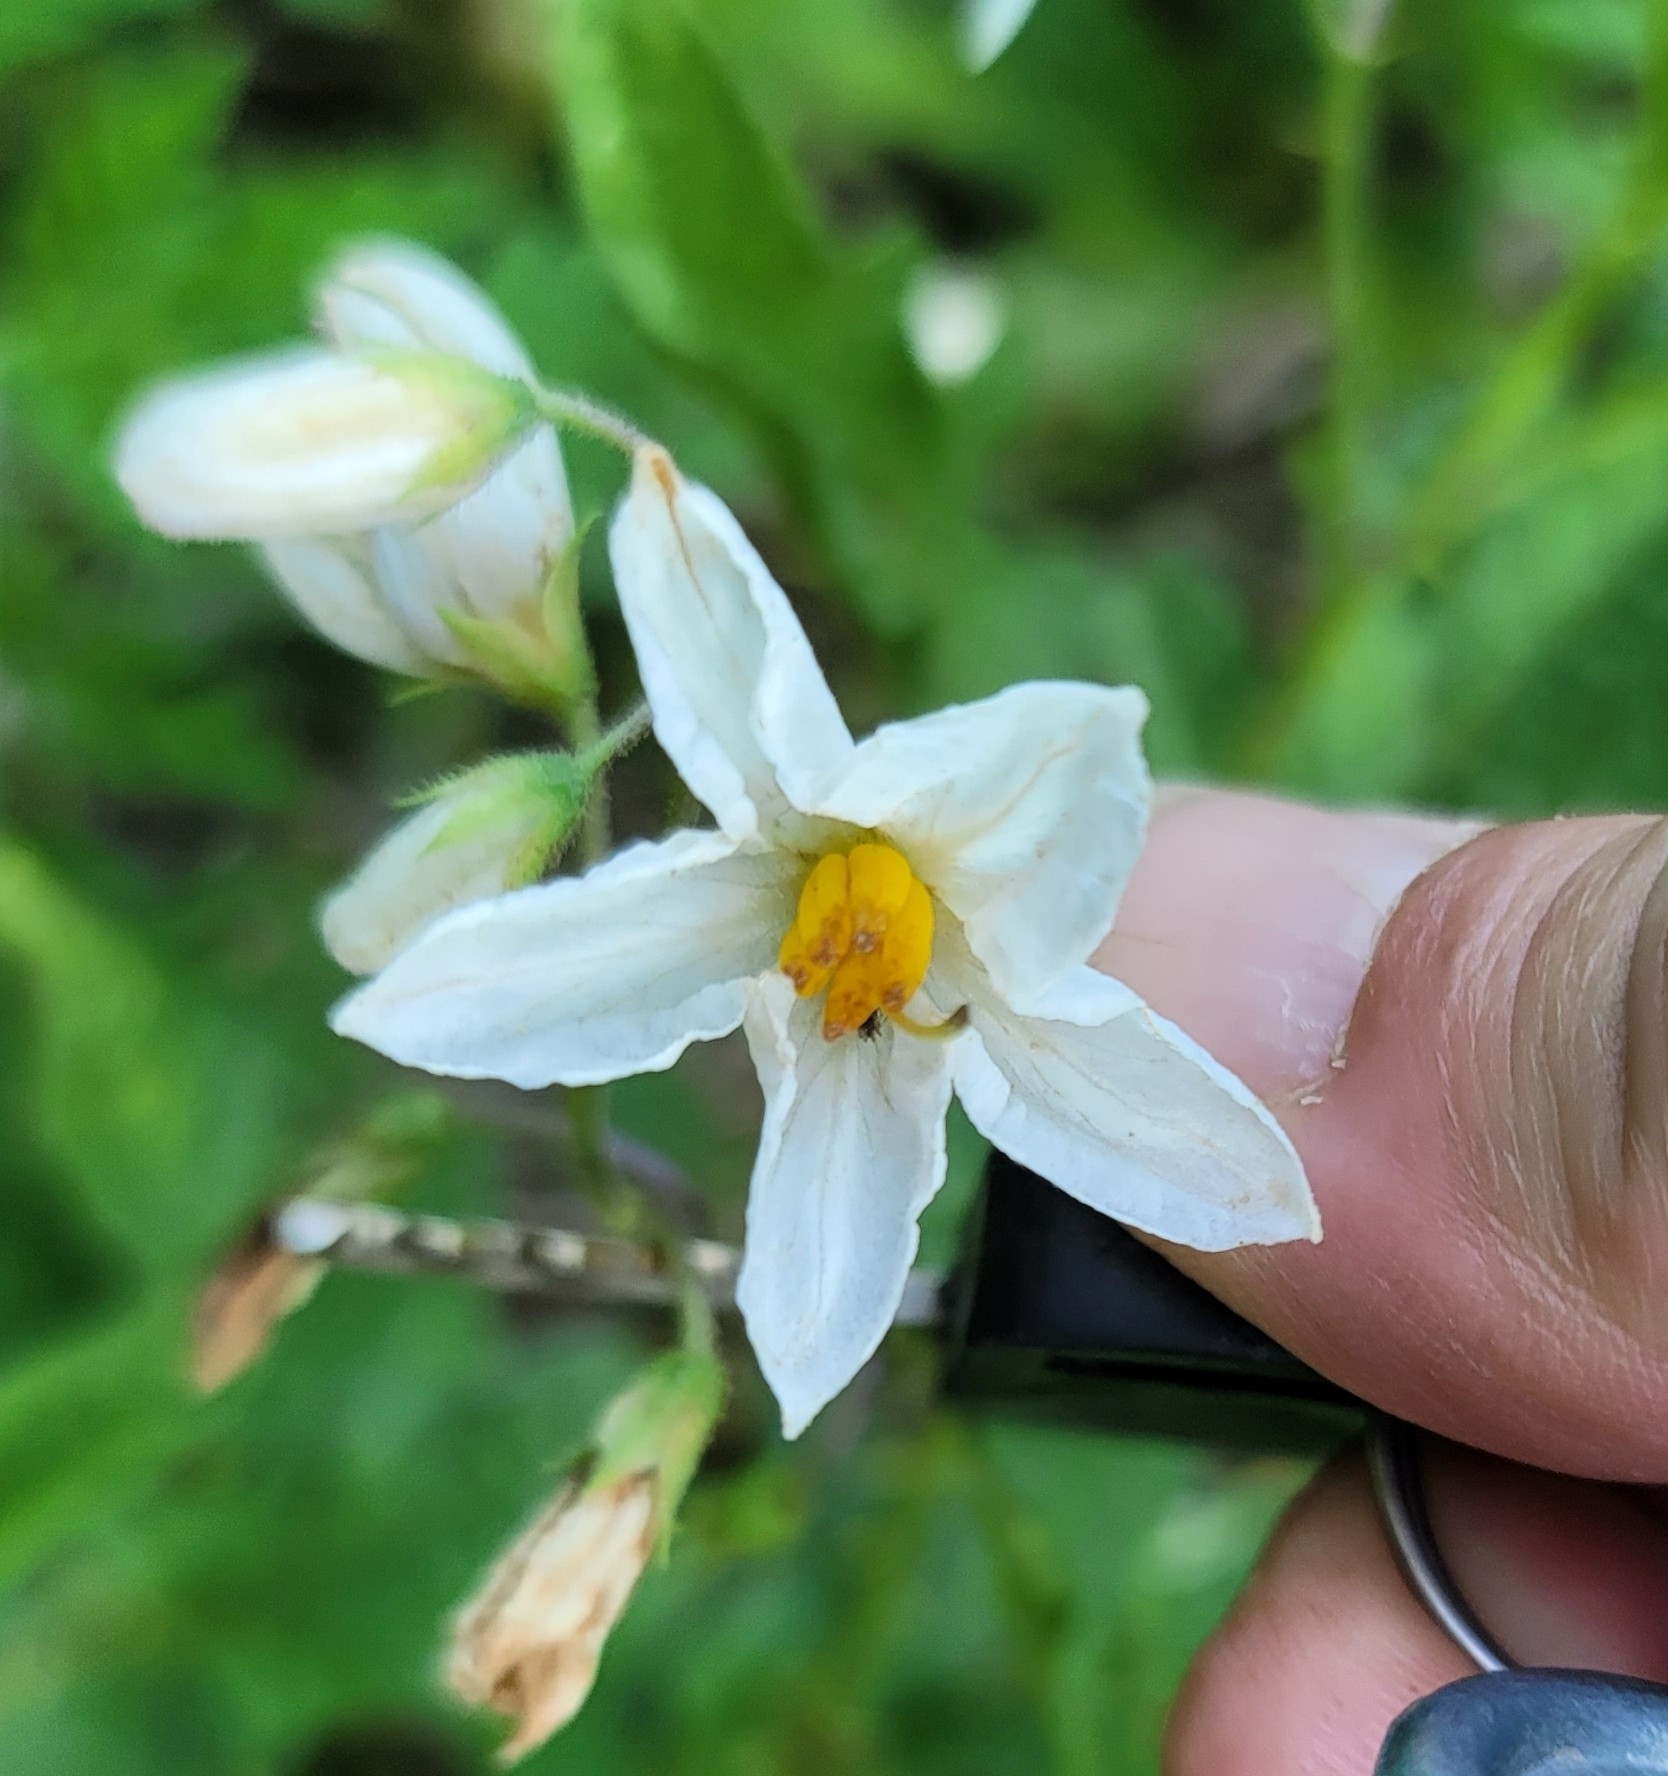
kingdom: Plantae
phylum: Tracheophyta
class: Magnoliopsida
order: Solanales
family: Solanaceae
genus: Solanum
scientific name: Solanum carolinense
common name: Horse-nettle
